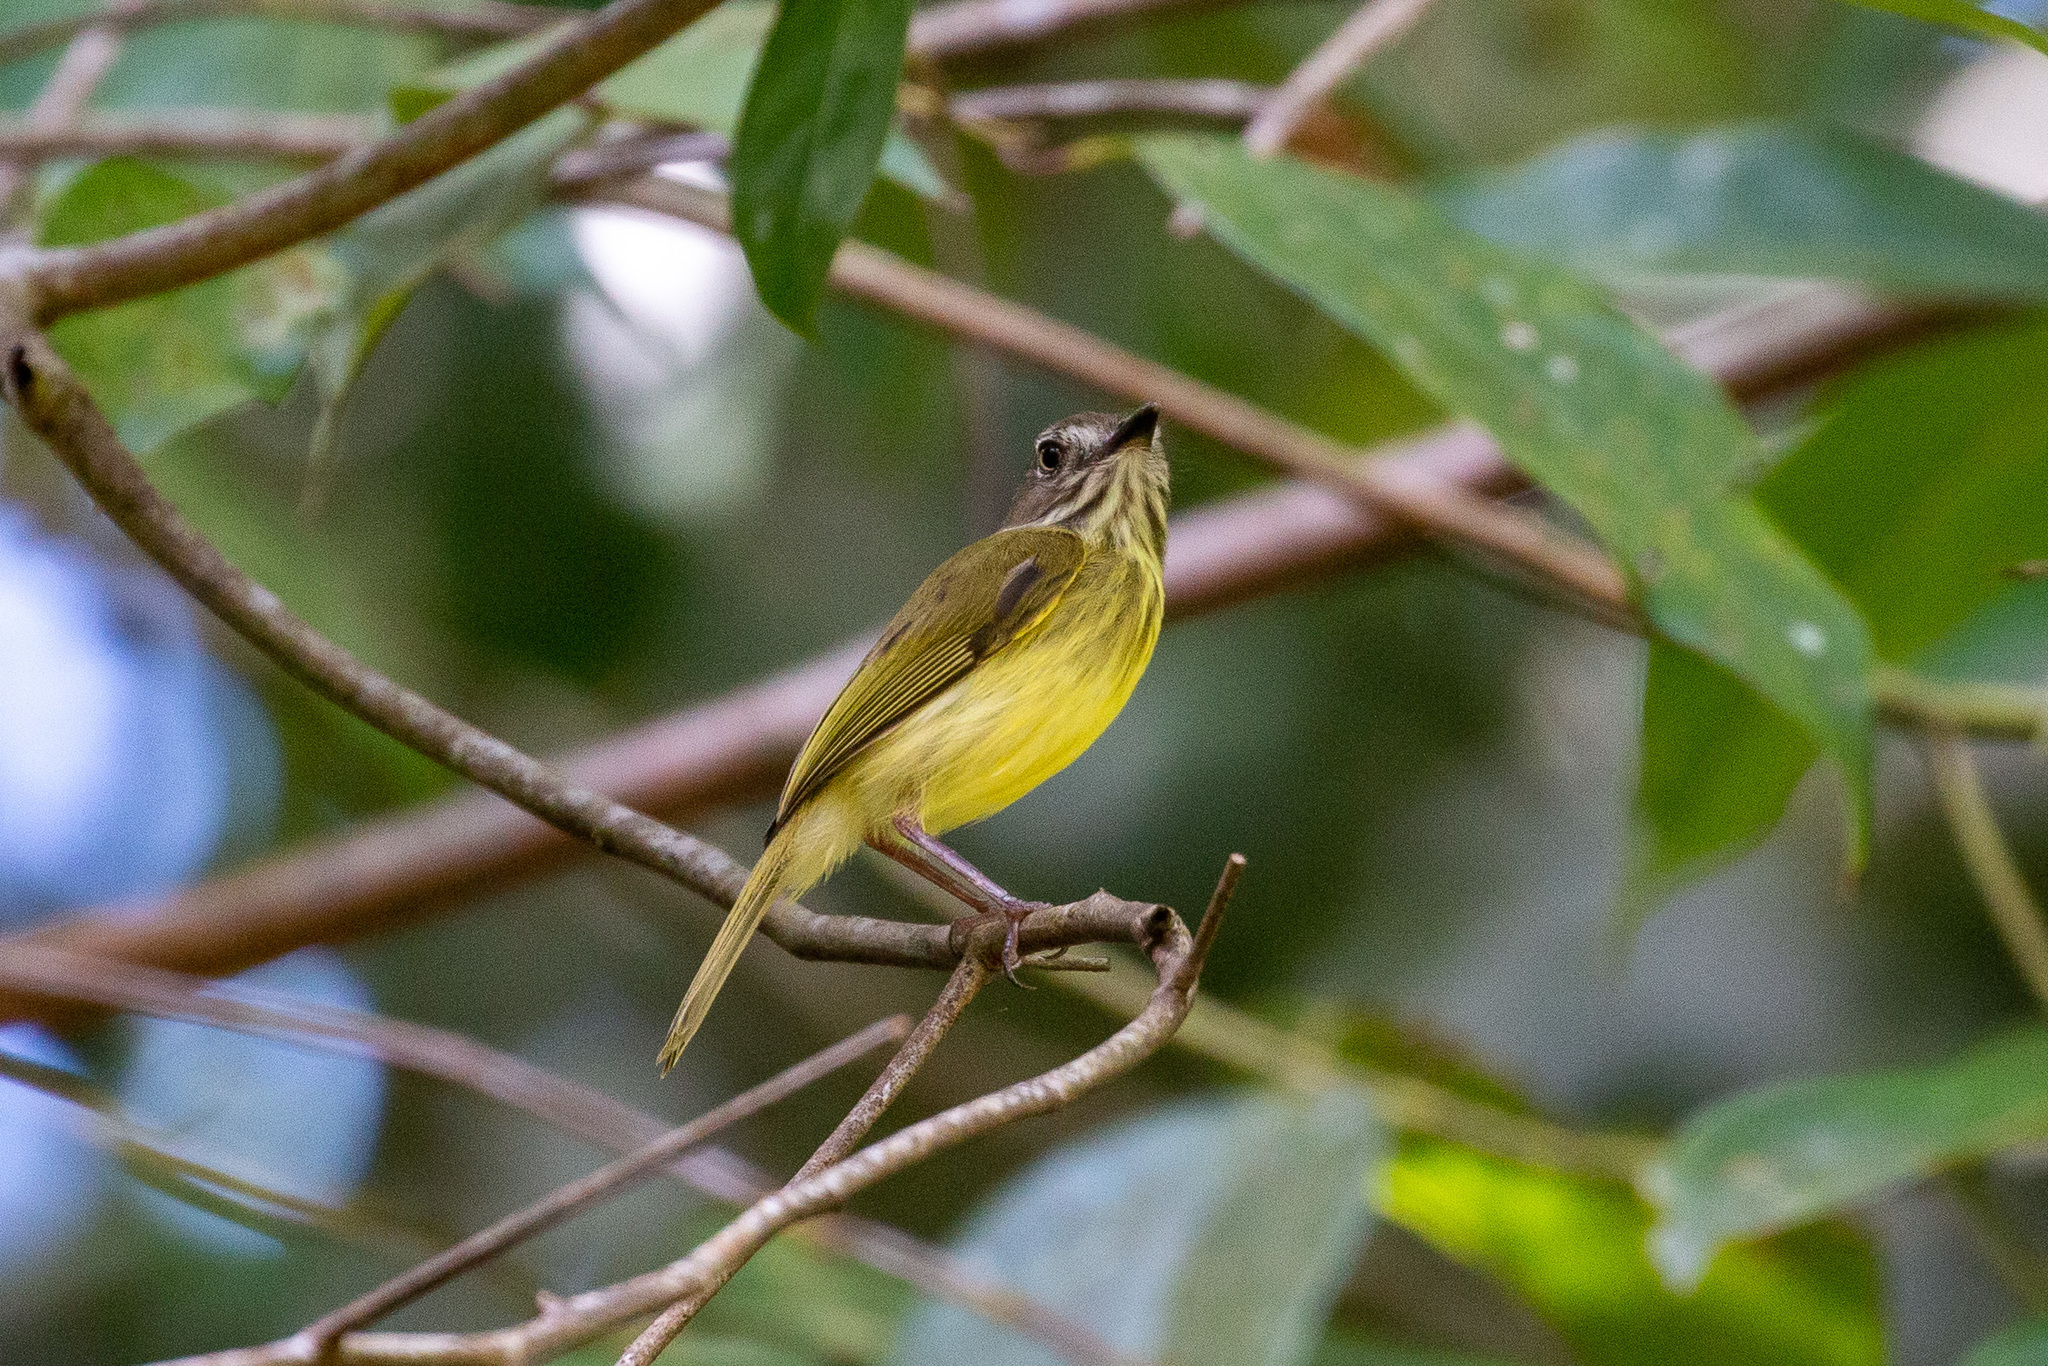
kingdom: Animalia
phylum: Chordata
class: Aves
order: Passeriformes
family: Tyrannidae
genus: Hemitriccus
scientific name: Hemitriccus striaticollis
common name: Stripe-necked tody-tyrant
